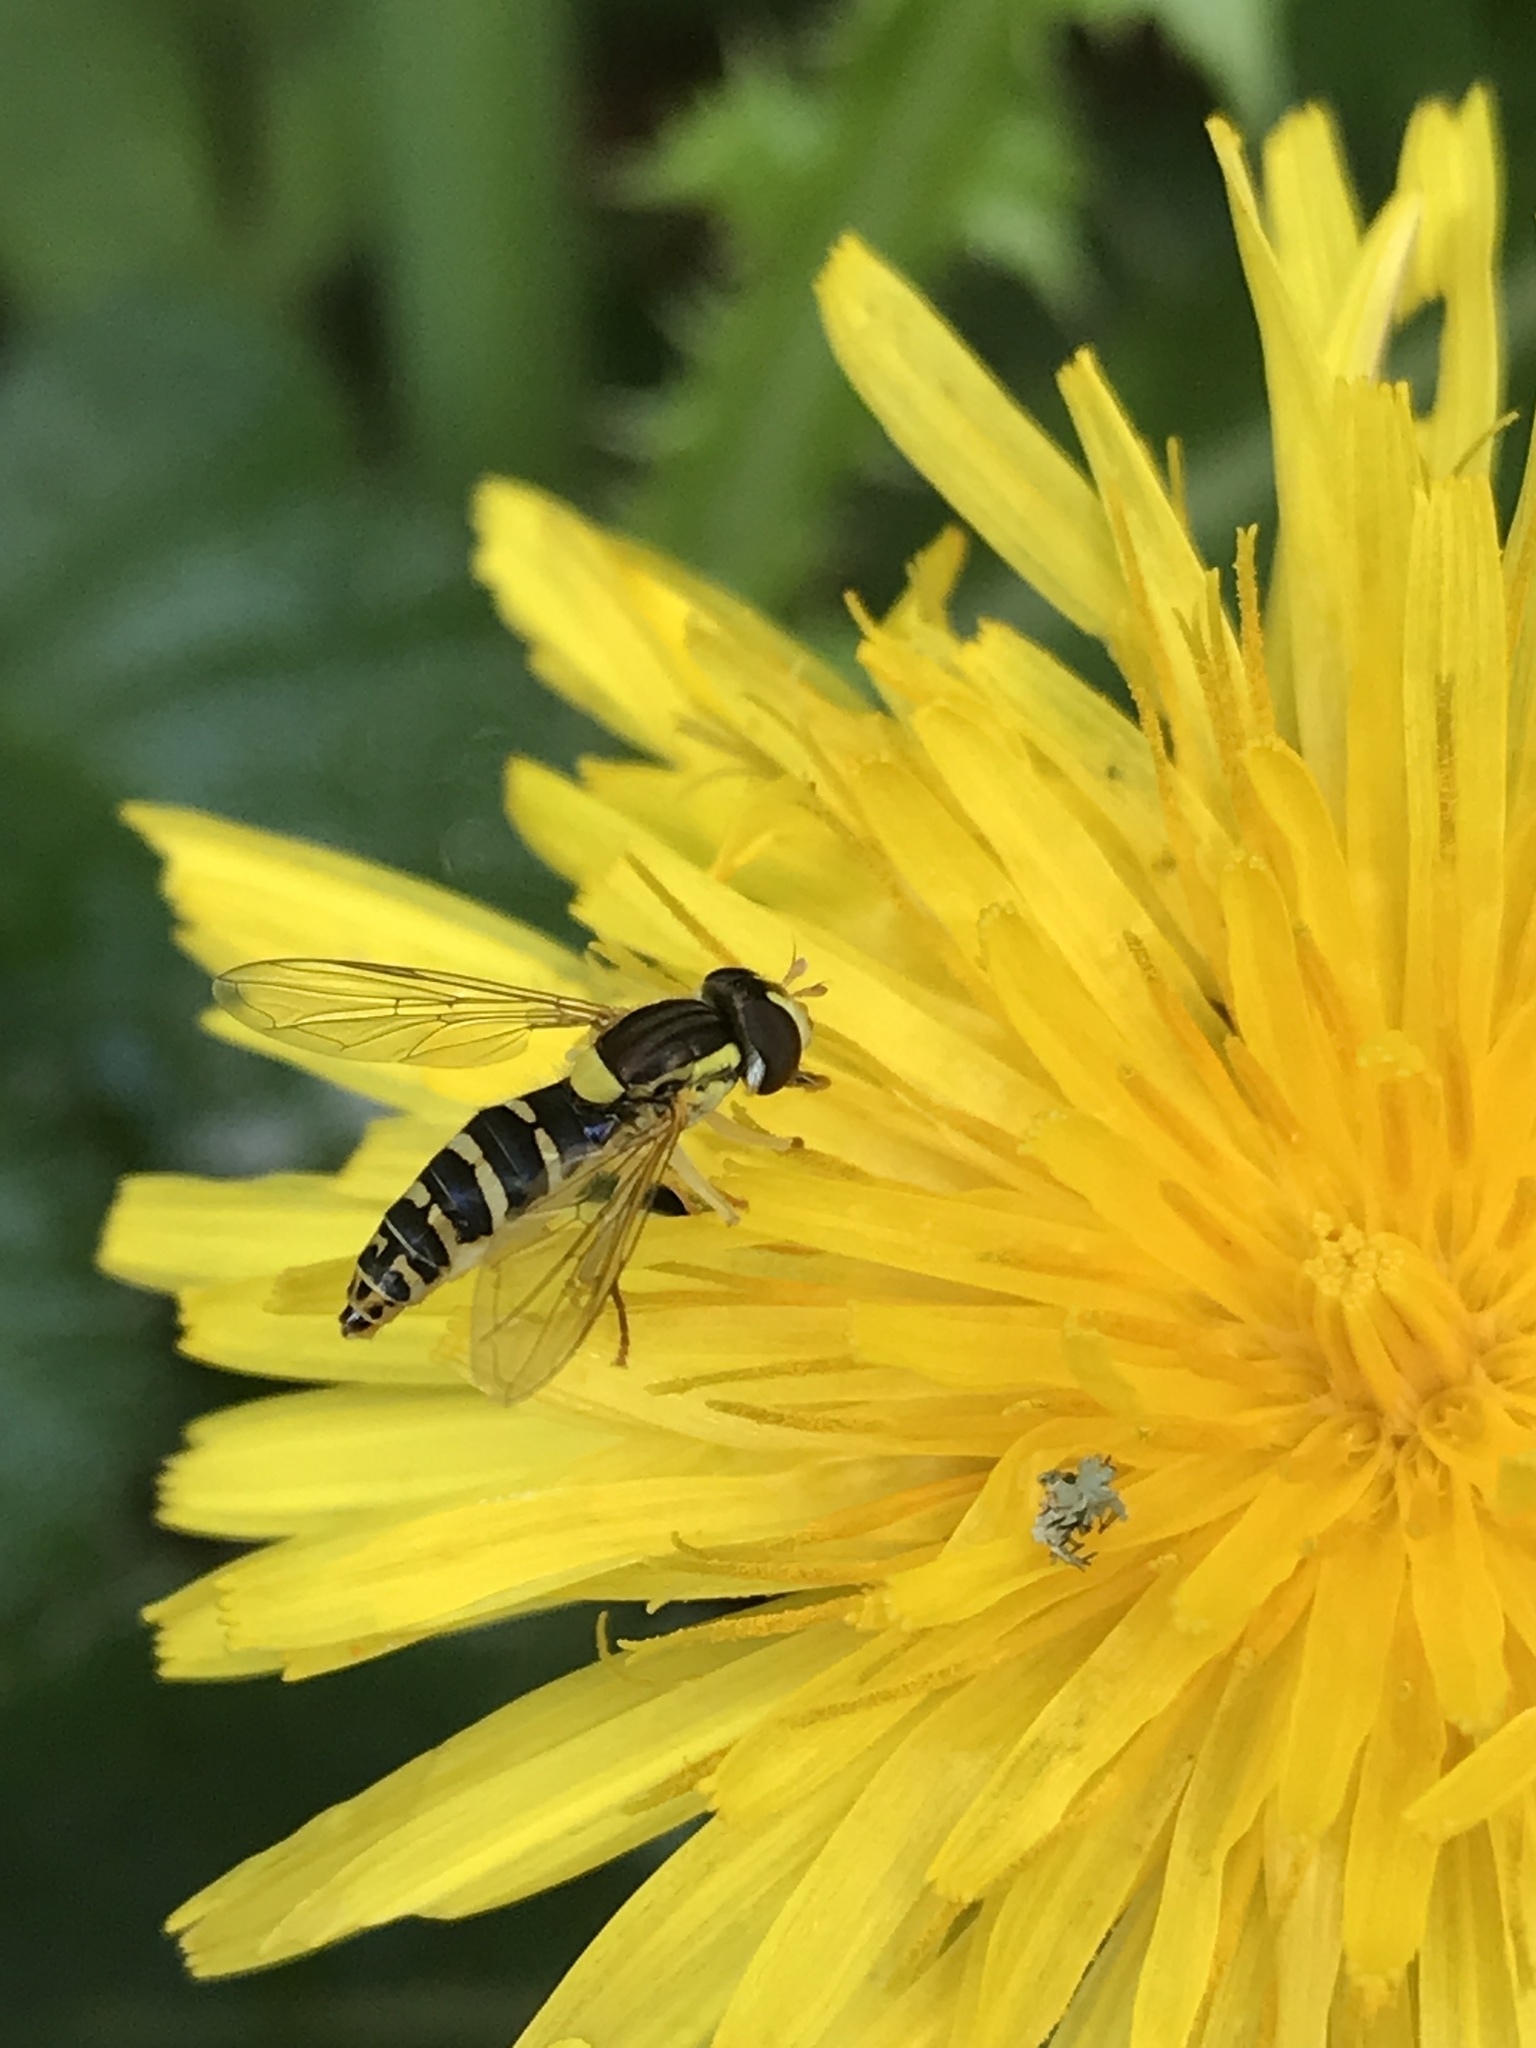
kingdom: Animalia
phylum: Arthropoda
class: Insecta
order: Diptera
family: Syrphidae
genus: Sphaerophoria
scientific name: Sphaerophoria
